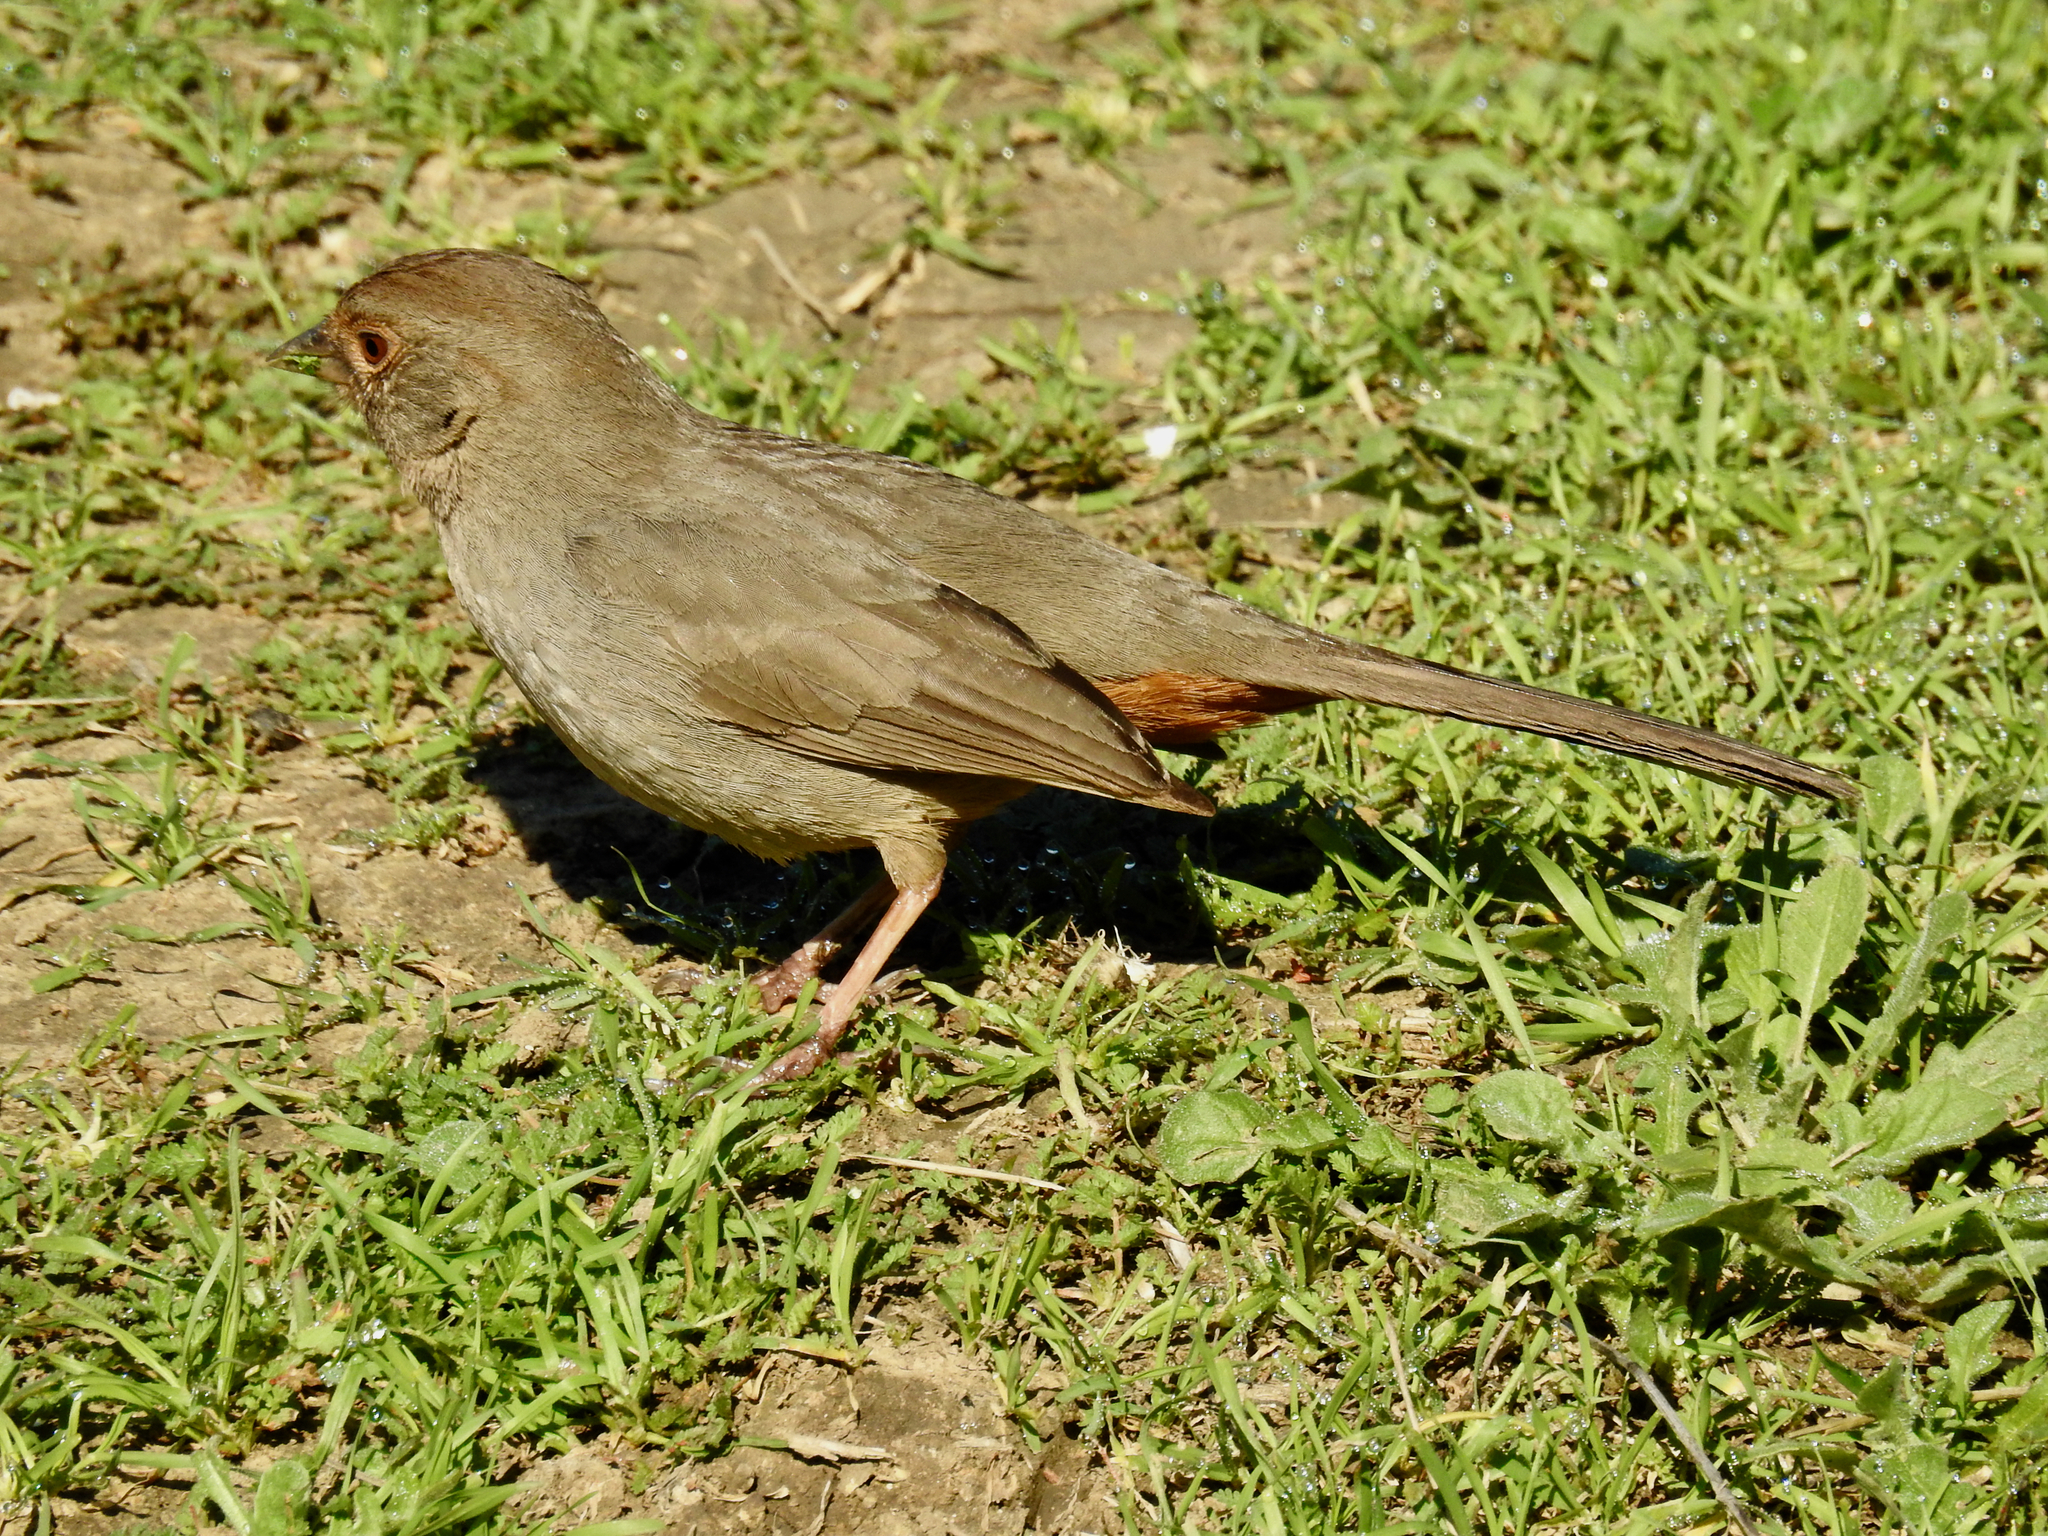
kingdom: Animalia
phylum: Chordata
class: Aves
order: Passeriformes
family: Passerellidae
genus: Melozone
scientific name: Melozone crissalis
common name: California towhee
